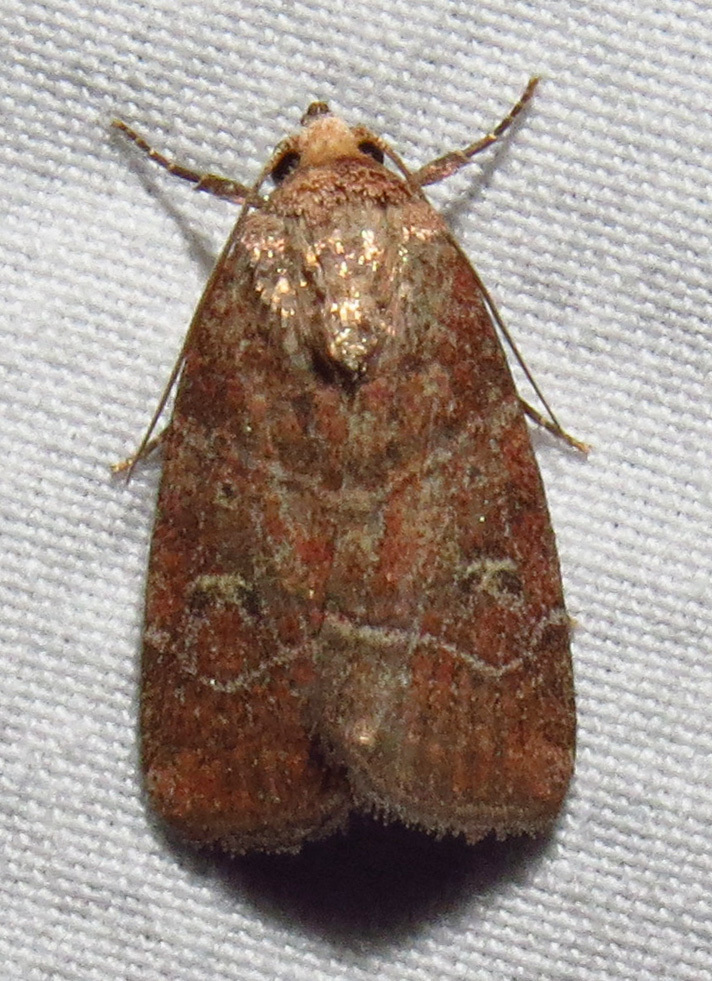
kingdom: Animalia
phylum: Arthropoda
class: Insecta
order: Lepidoptera
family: Noctuidae
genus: Elaphria
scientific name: Elaphria grata
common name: Grateful midget moth
